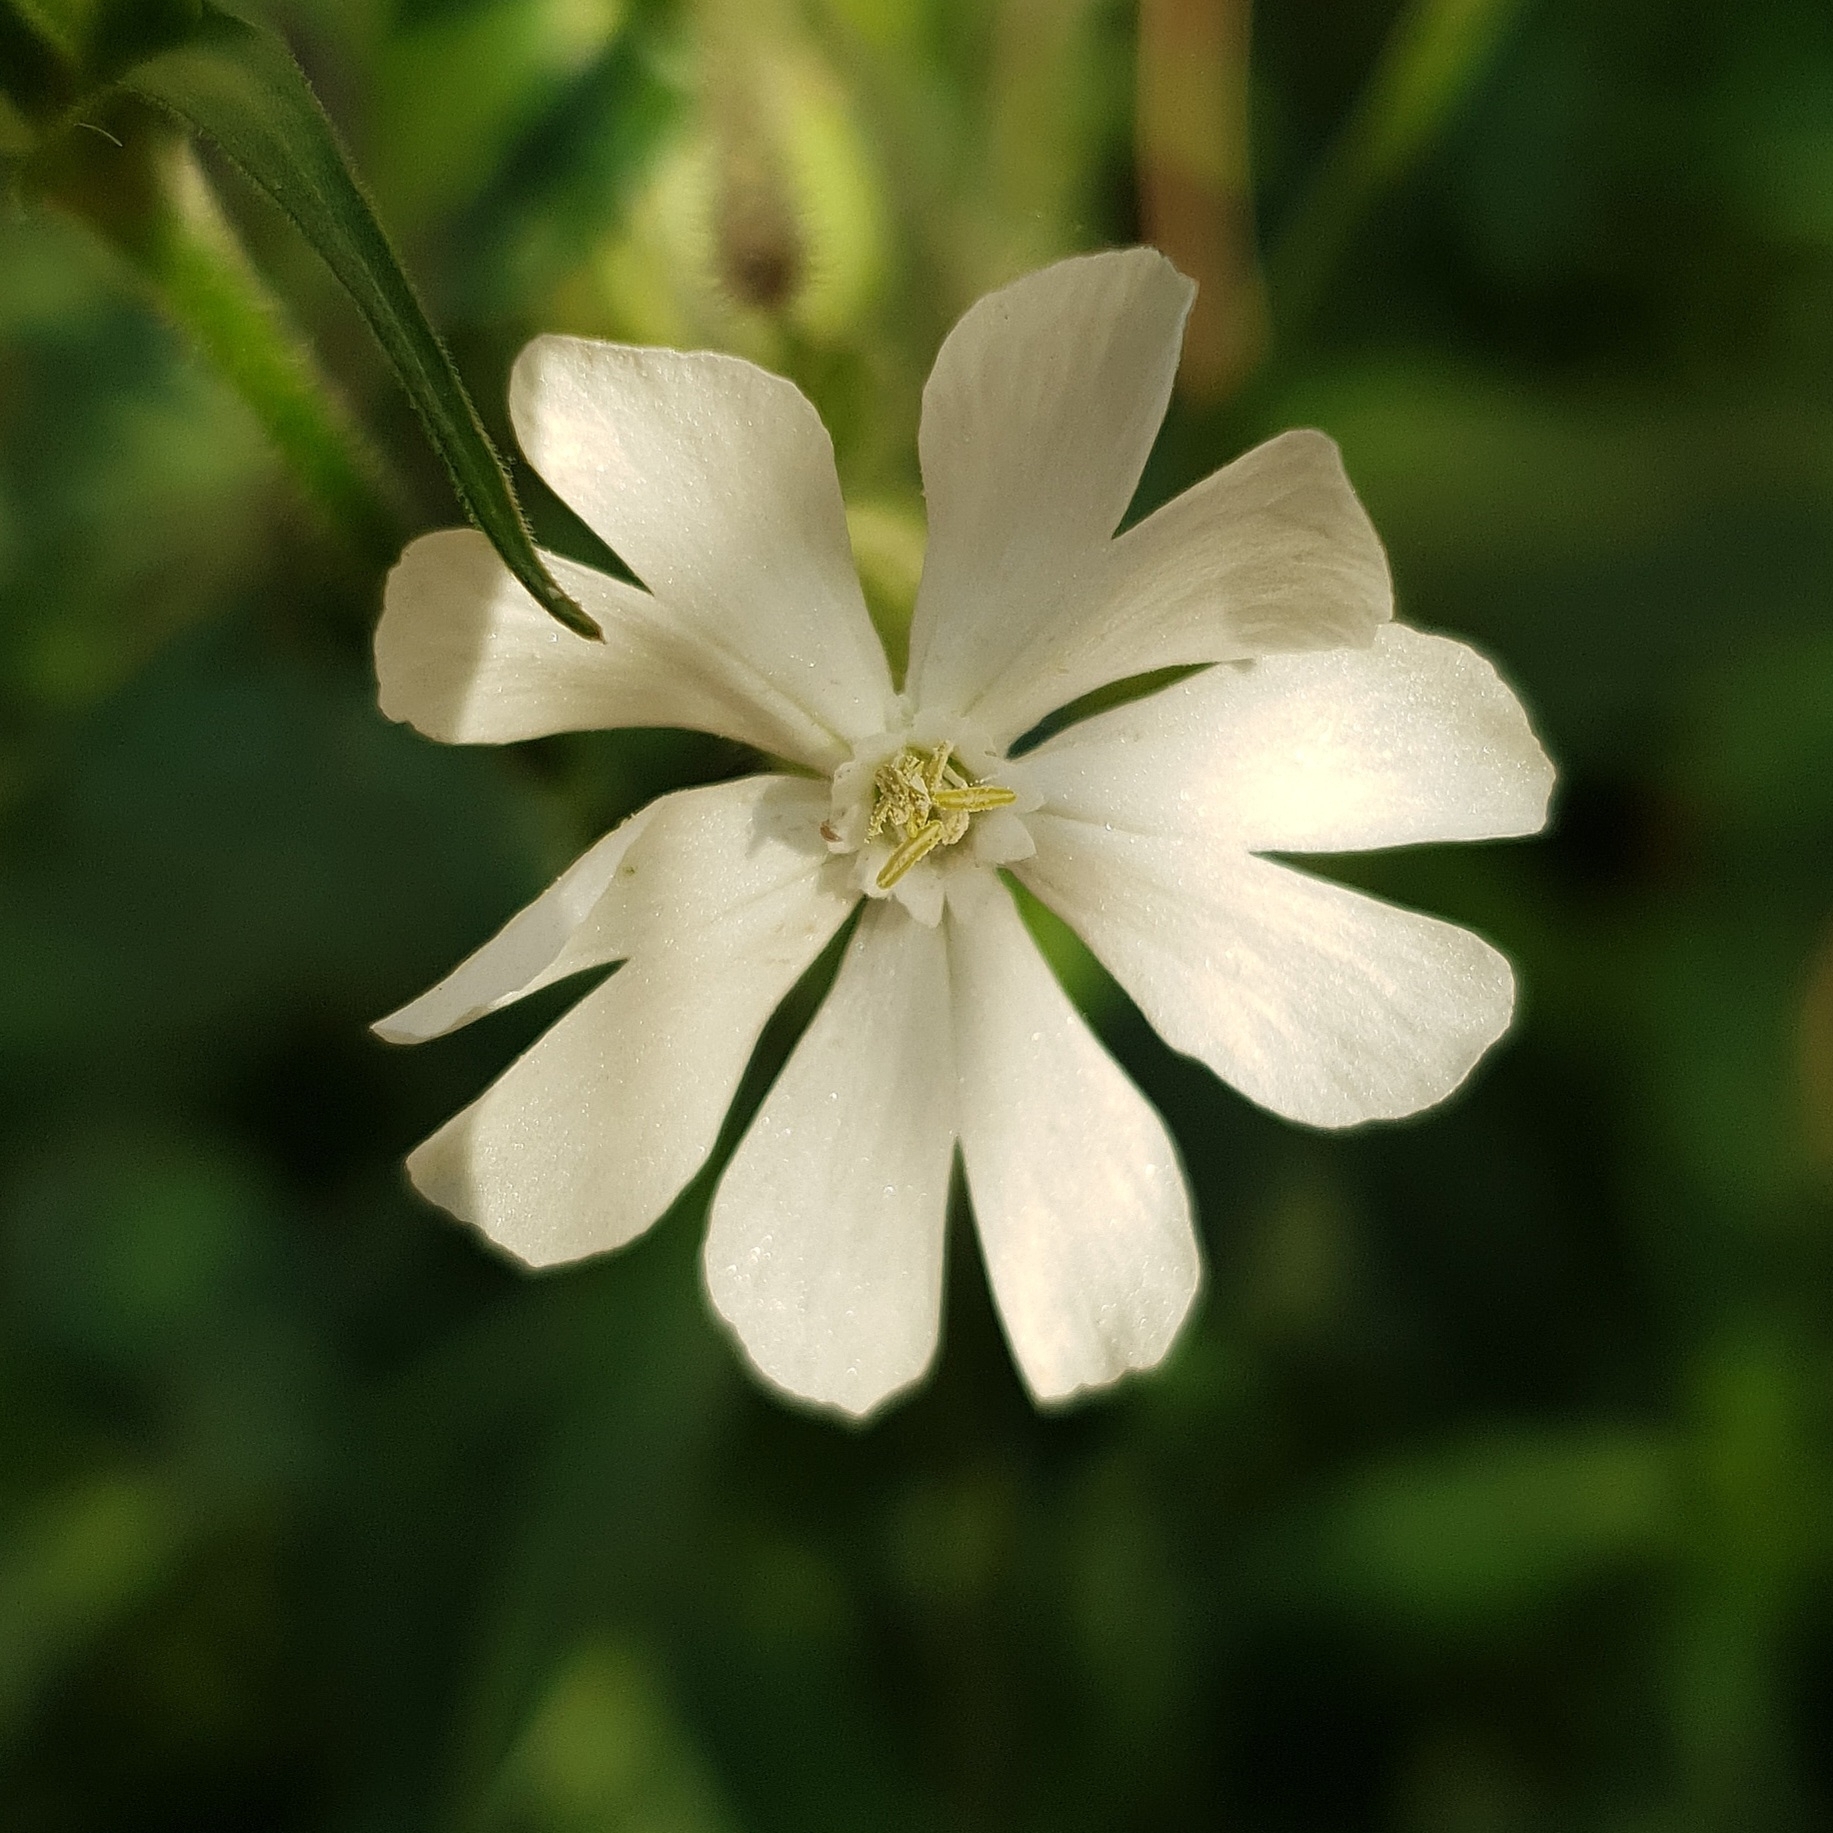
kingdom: Plantae
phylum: Tracheophyta
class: Magnoliopsida
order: Caryophyllales
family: Caryophyllaceae
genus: Silene
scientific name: Silene latifolia
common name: White campion
